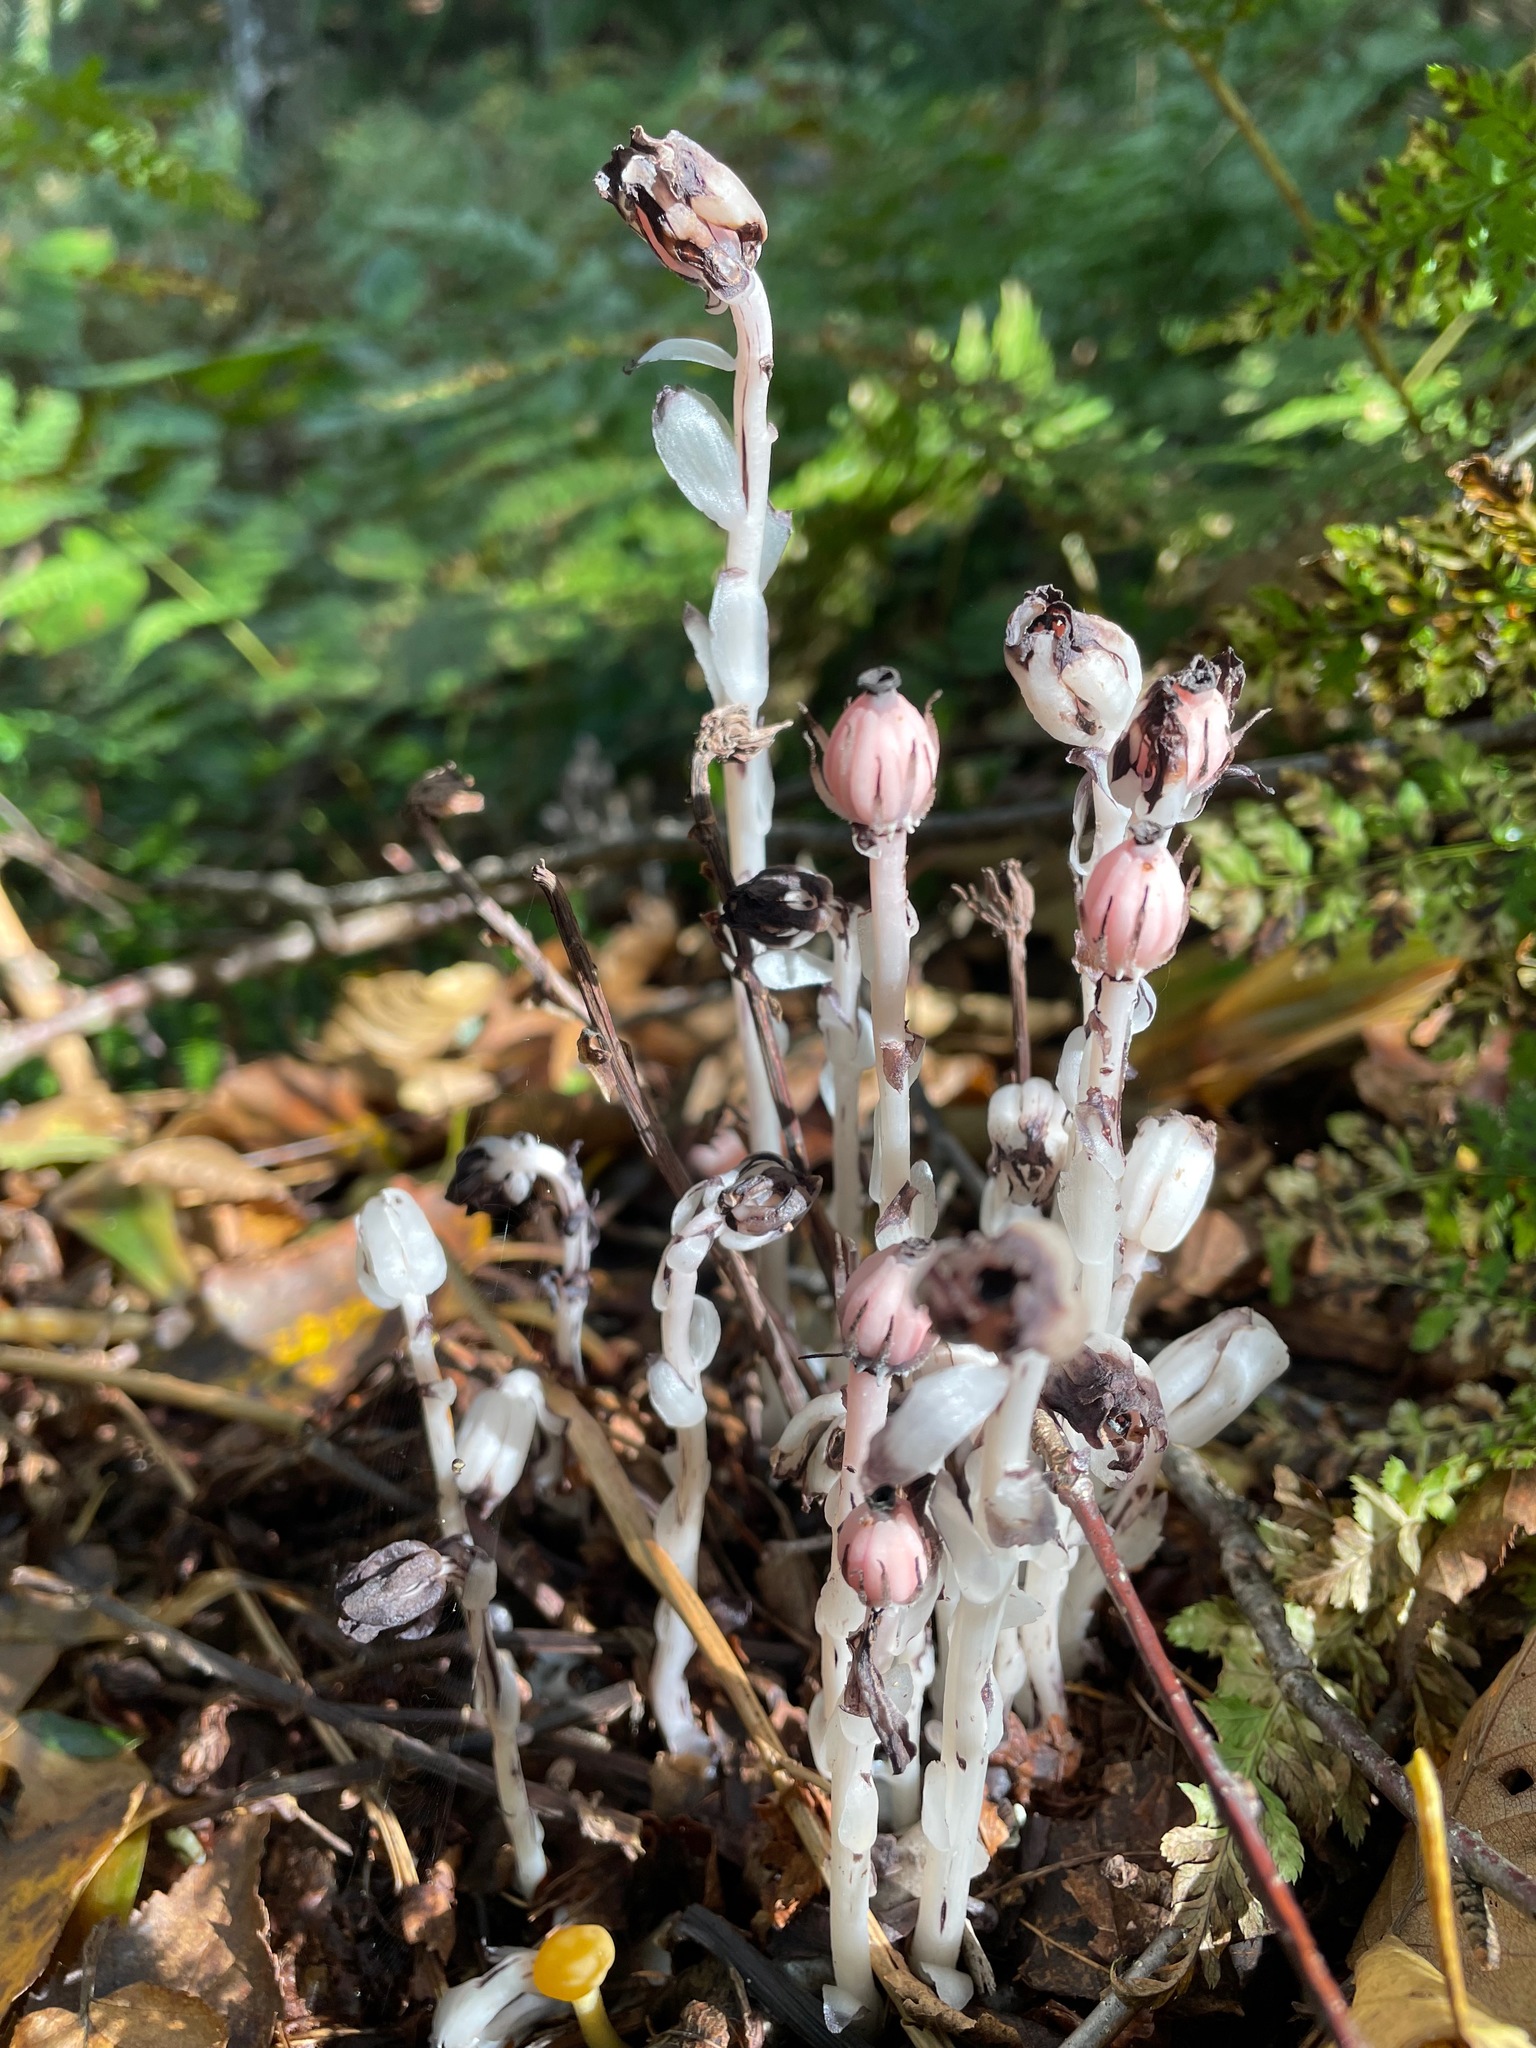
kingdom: Plantae
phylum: Tracheophyta
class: Magnoliopsida
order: Ericales
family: Ericaceae
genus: Monotropa
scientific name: Monotropa uniflora
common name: Convulsion root
